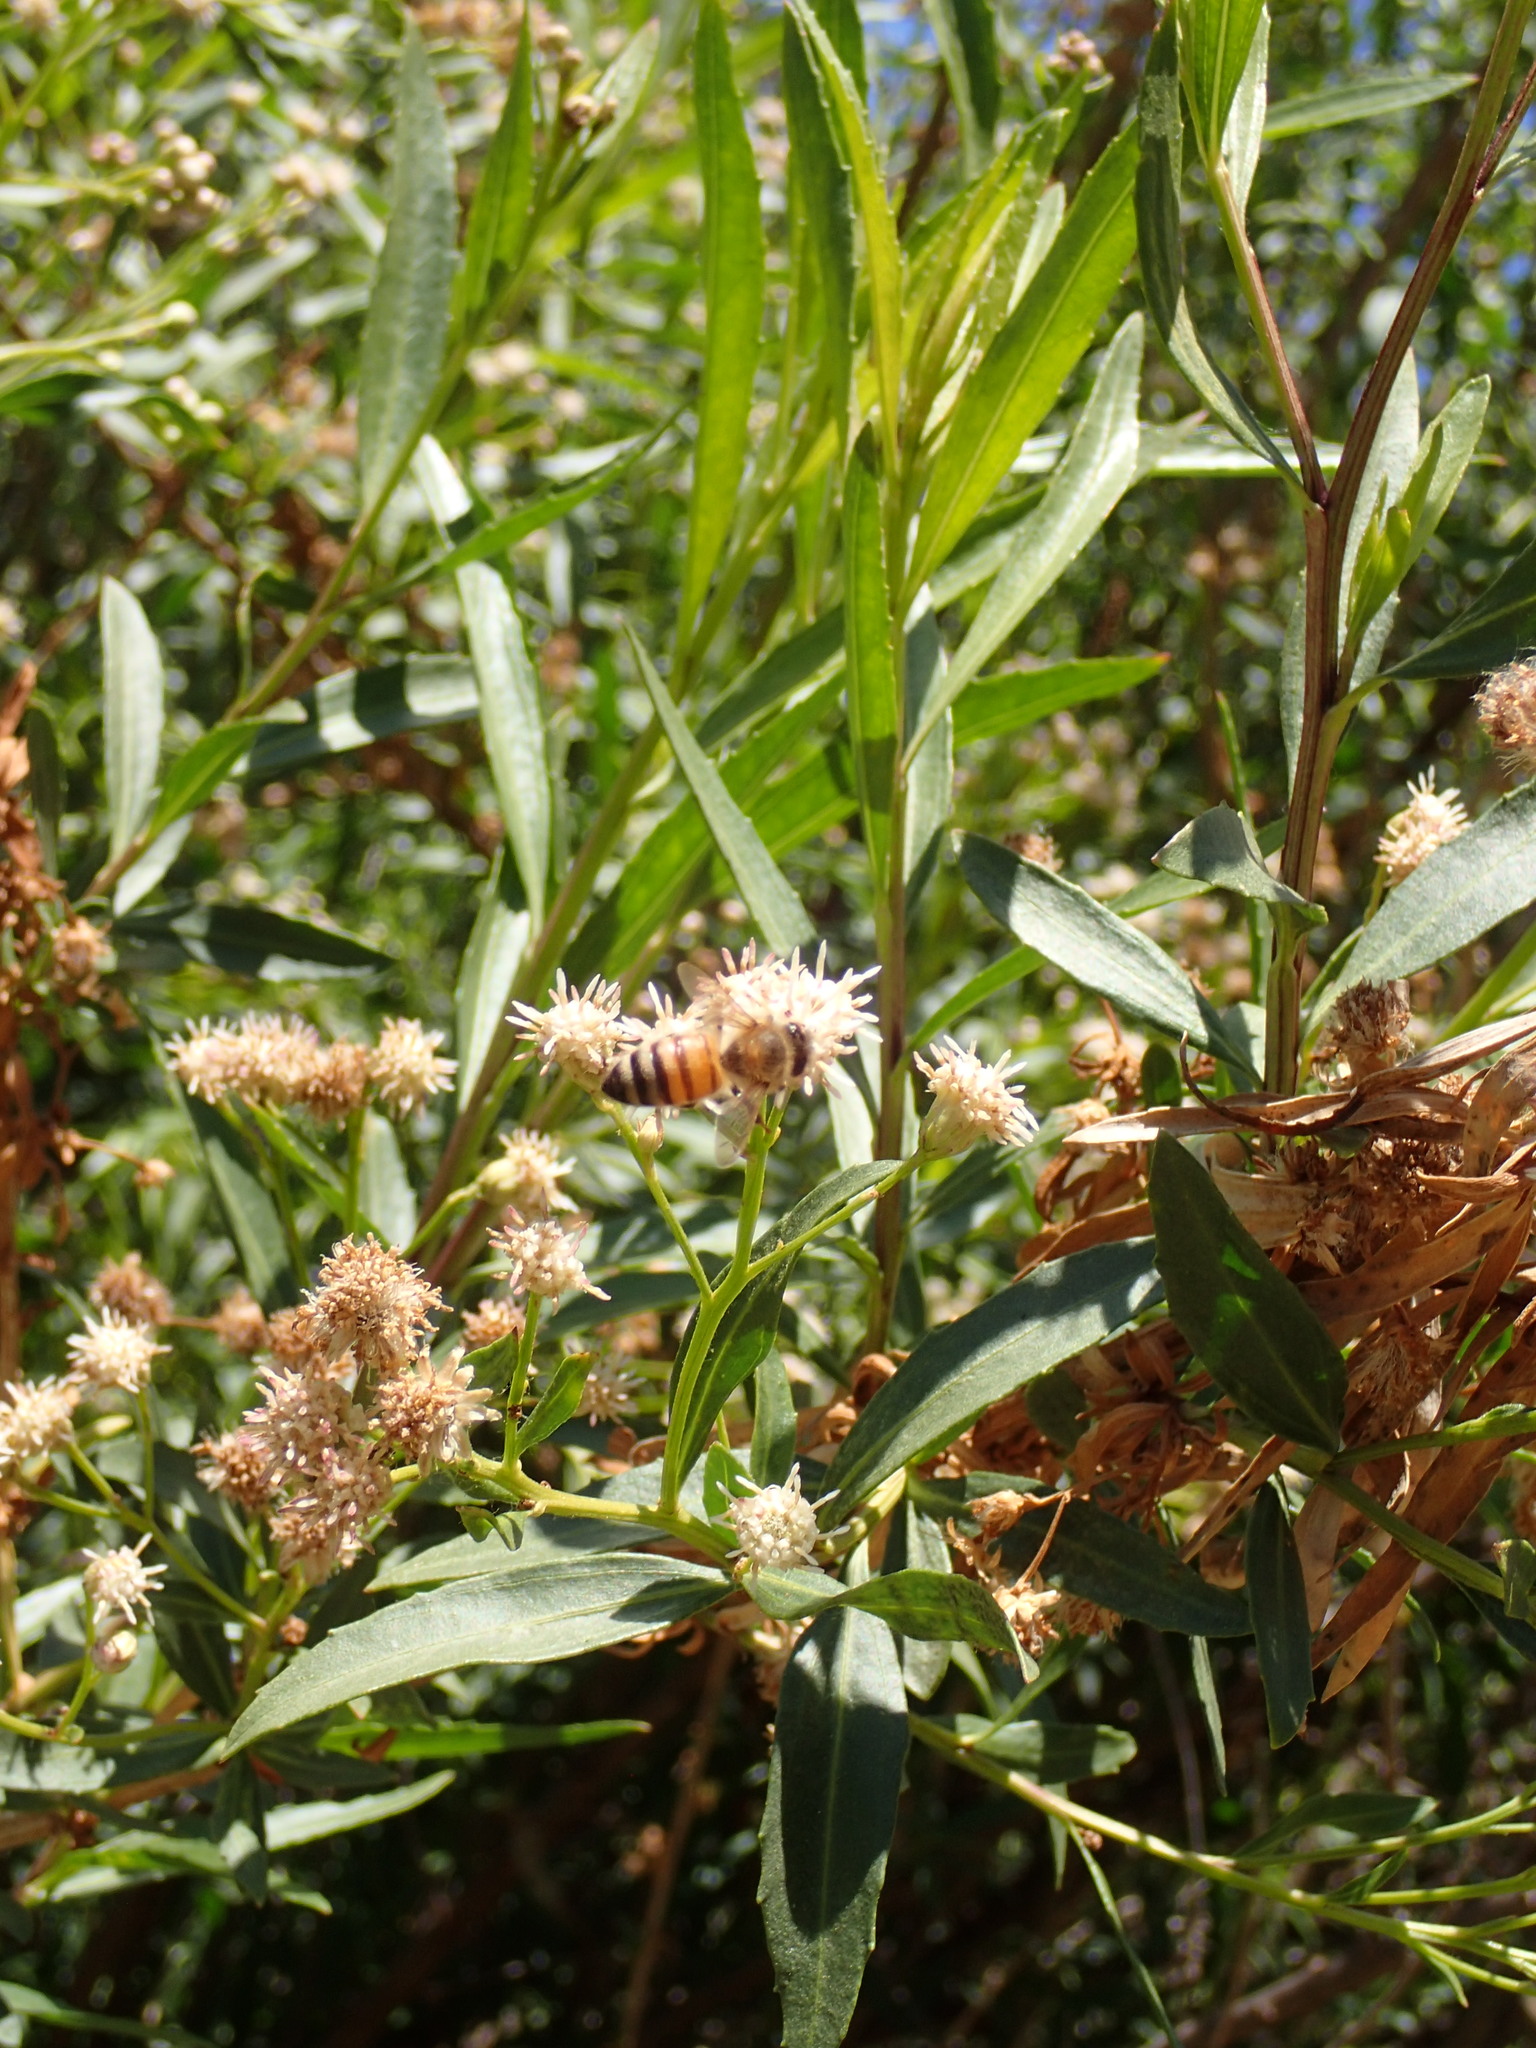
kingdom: Plantae
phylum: Tracheophyta
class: Magnoliopsida
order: Asterales
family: Asteraceae
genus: Baccharis
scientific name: Baccharis salicifolia
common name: Sticky baccharis
